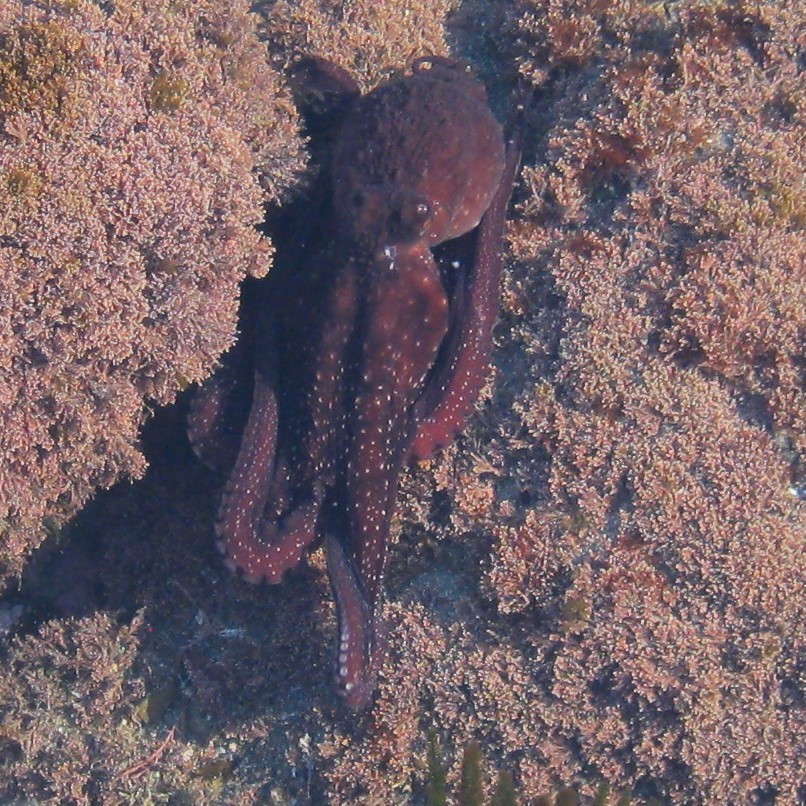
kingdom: Animalia
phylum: Mollusca
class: Cephalopoda
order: Octopoda
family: Octopodidae
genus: Macroctopus
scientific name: Macroctopus maorum
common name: Maori octopus
